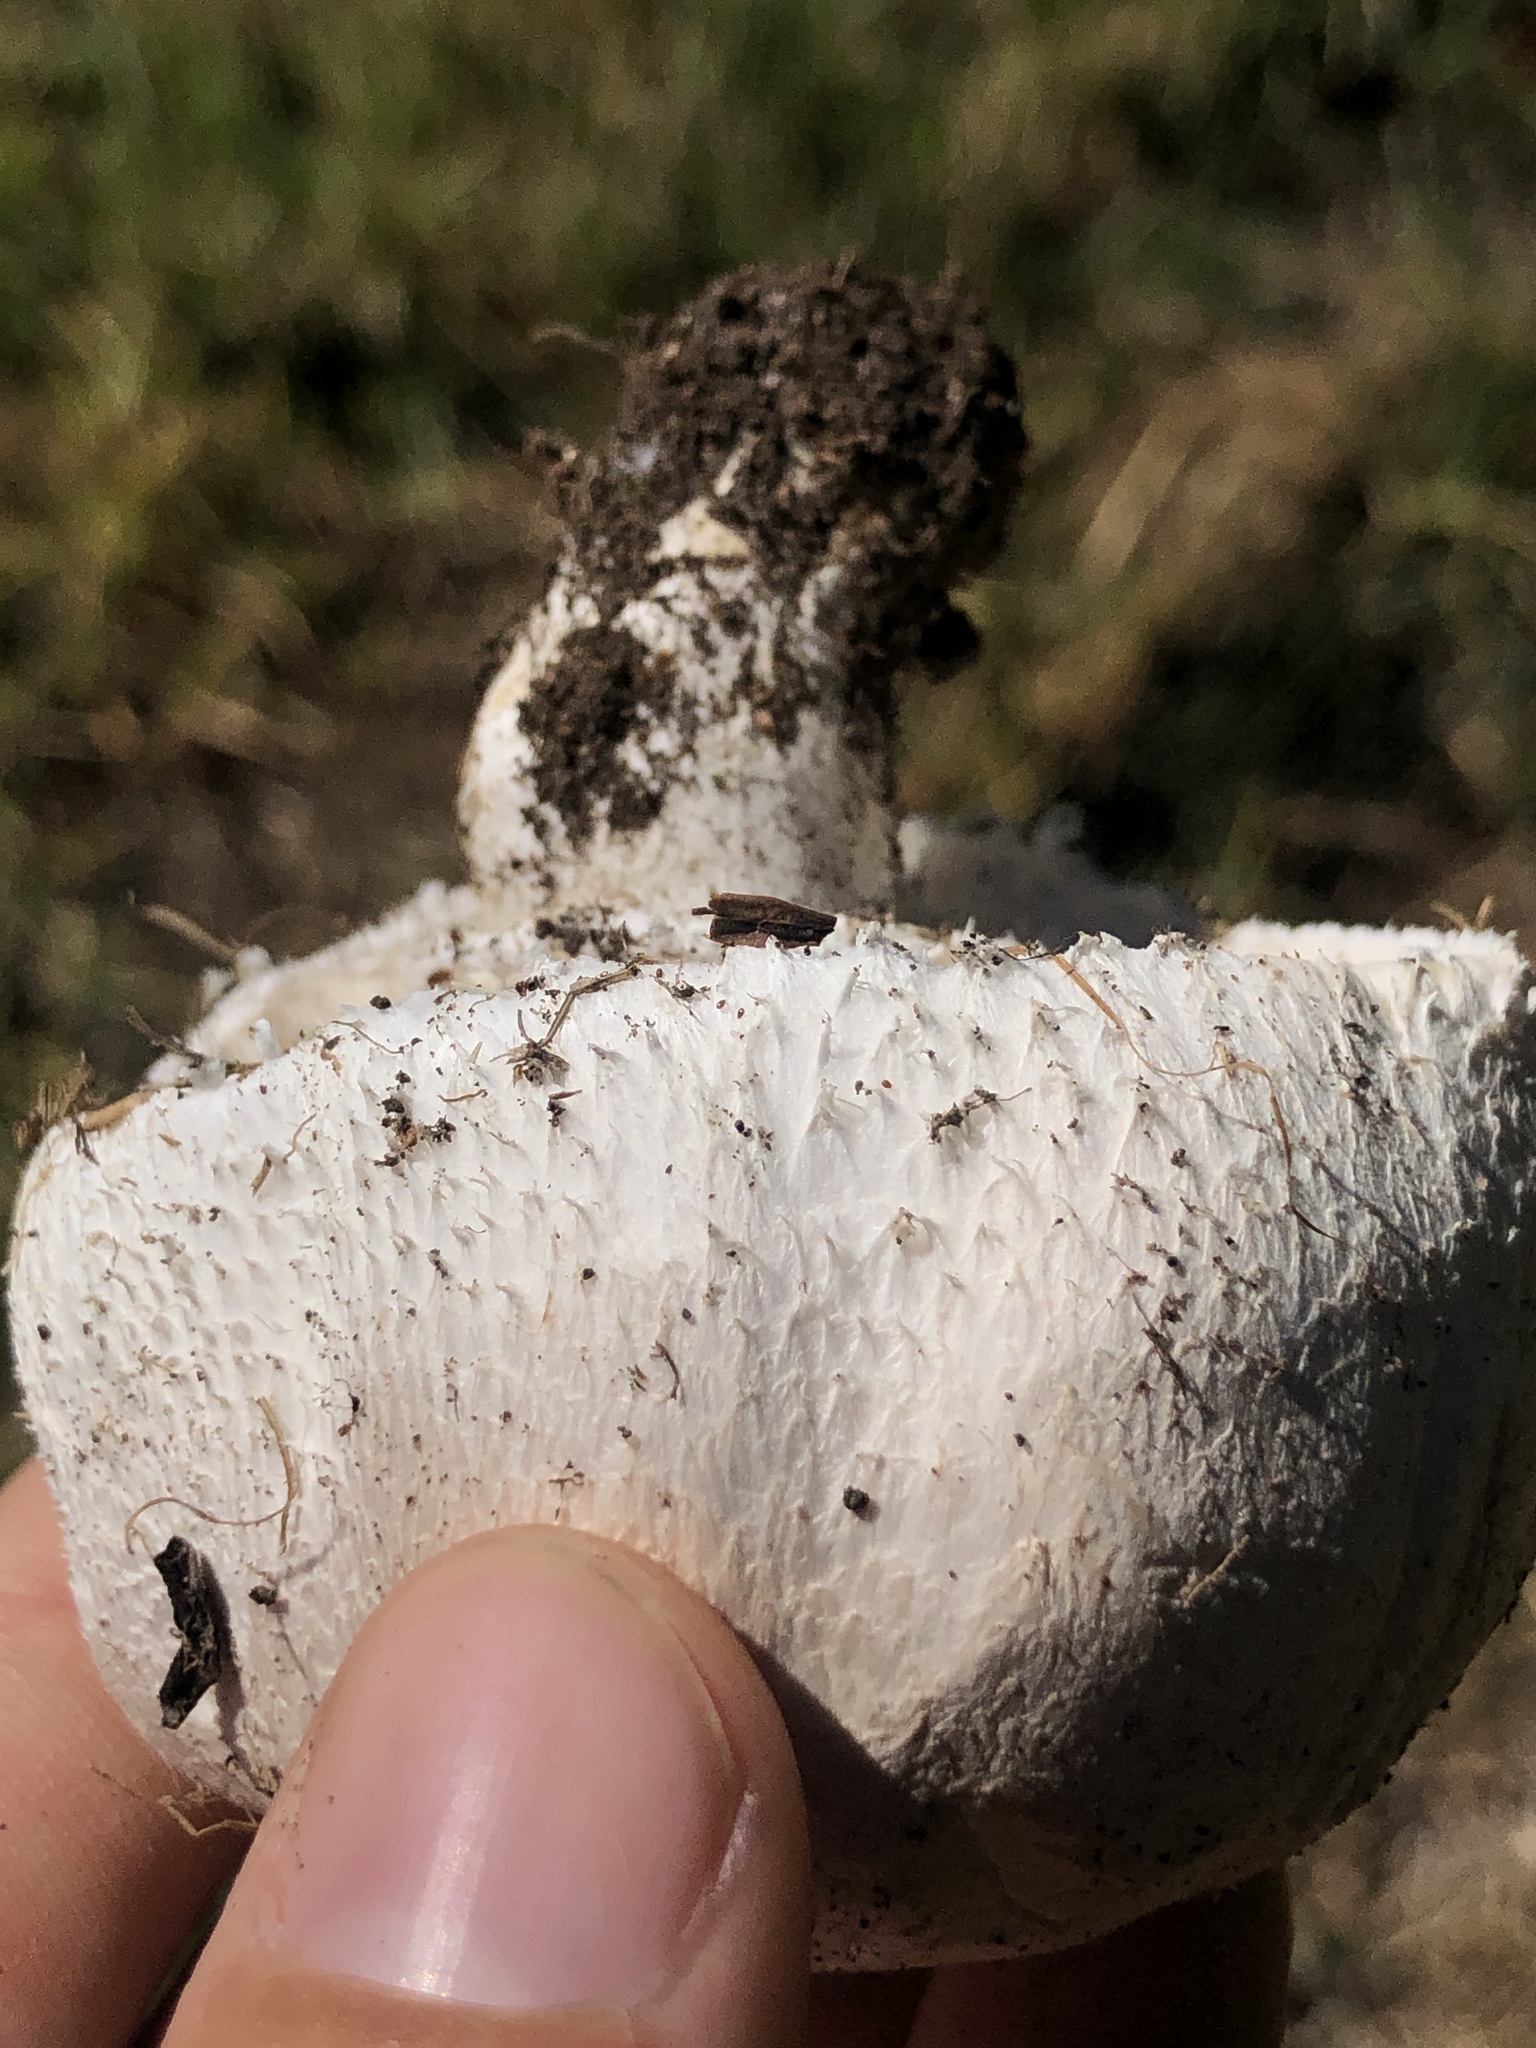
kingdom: Fungi
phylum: Basidiomycota
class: Agaricomycetes
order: Agaricales
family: Agaricaceae
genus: Leucoagaricus
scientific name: Leucoagaricus barssii
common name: Smoky dapperling
